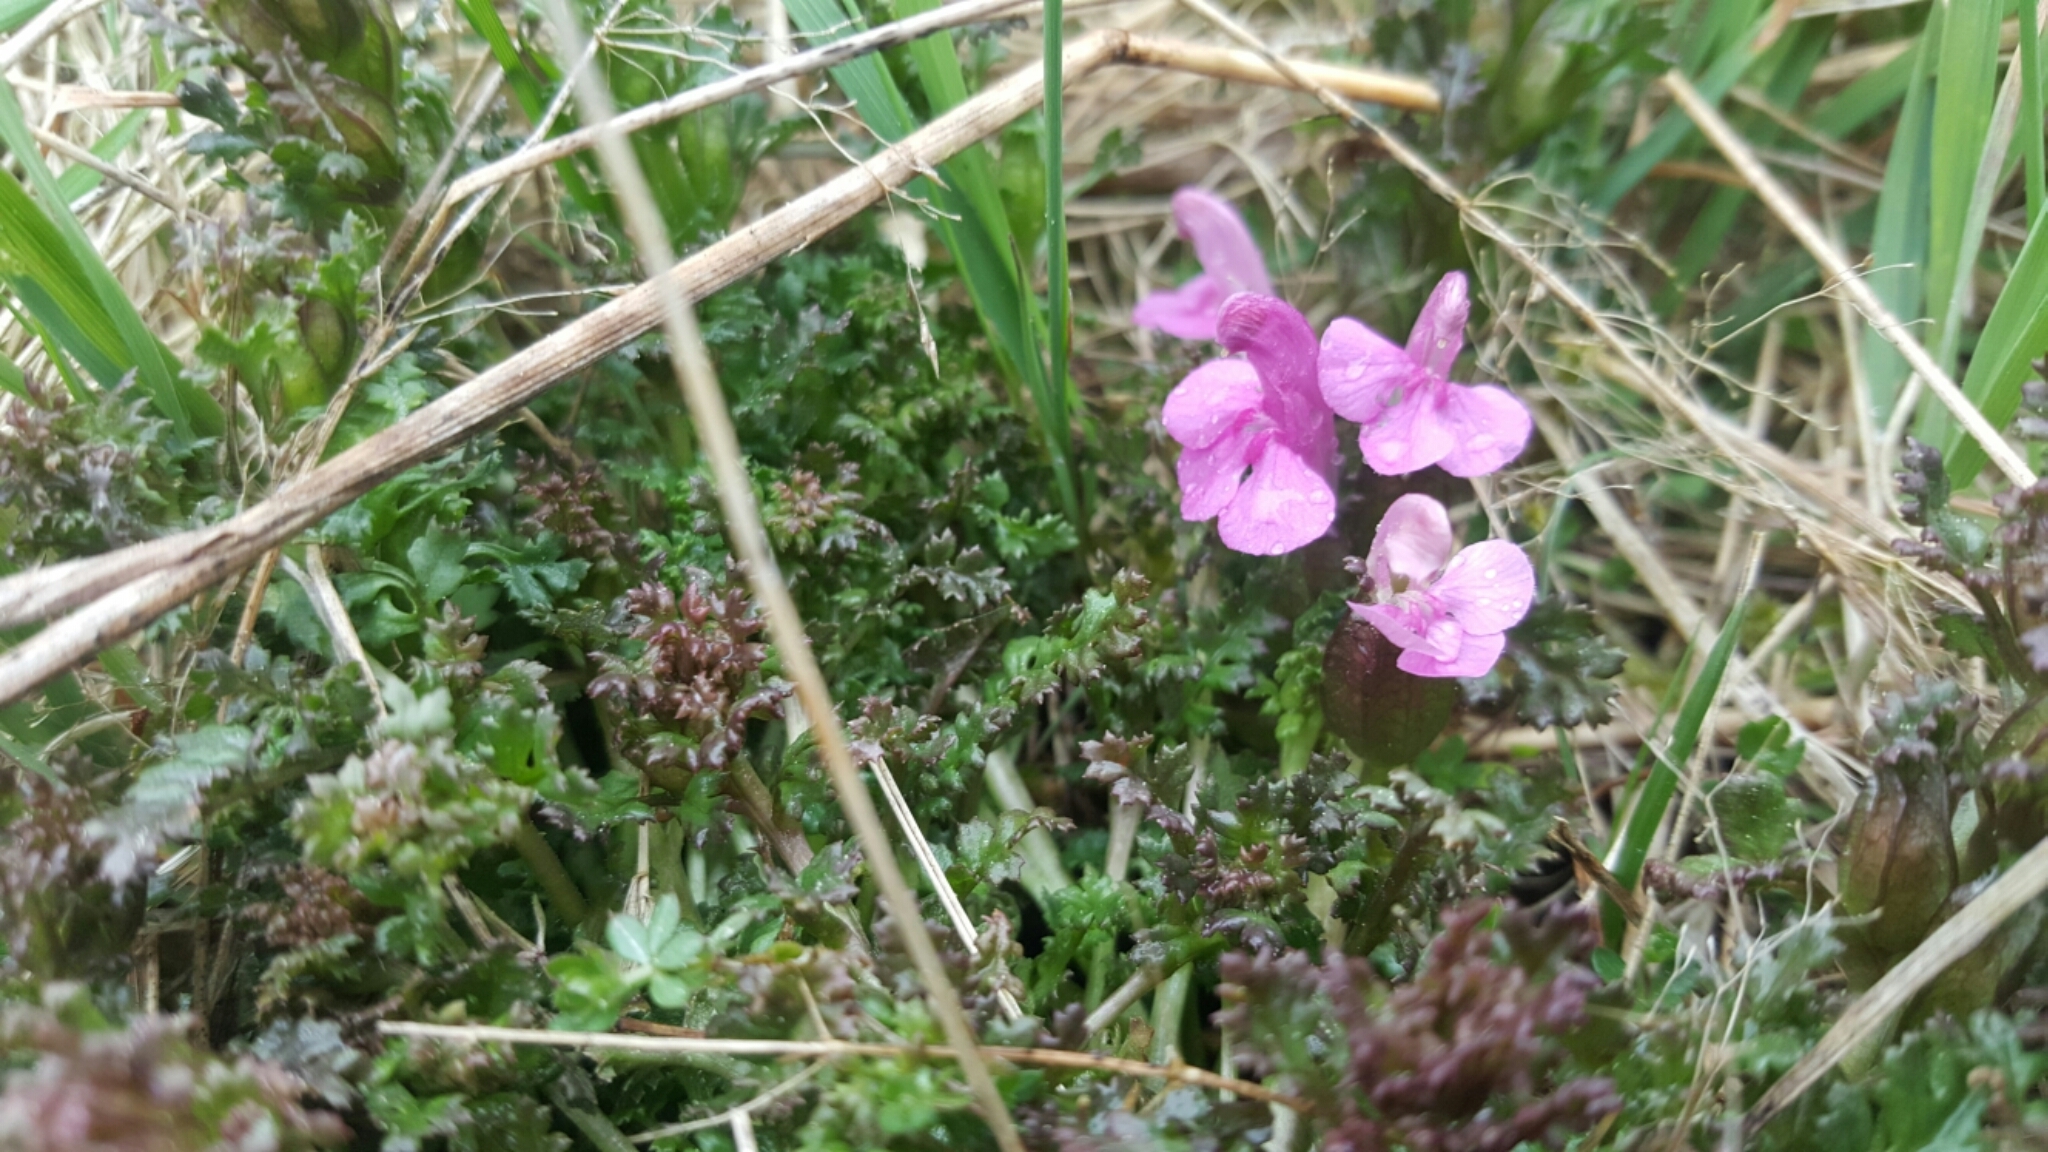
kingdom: Plantae
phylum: Tracheophyta
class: Magnoliopsida
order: Lamiales
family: Orobanchaceae
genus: Pedicularis
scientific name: Pedicularis sylvatica
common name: Lousewort
